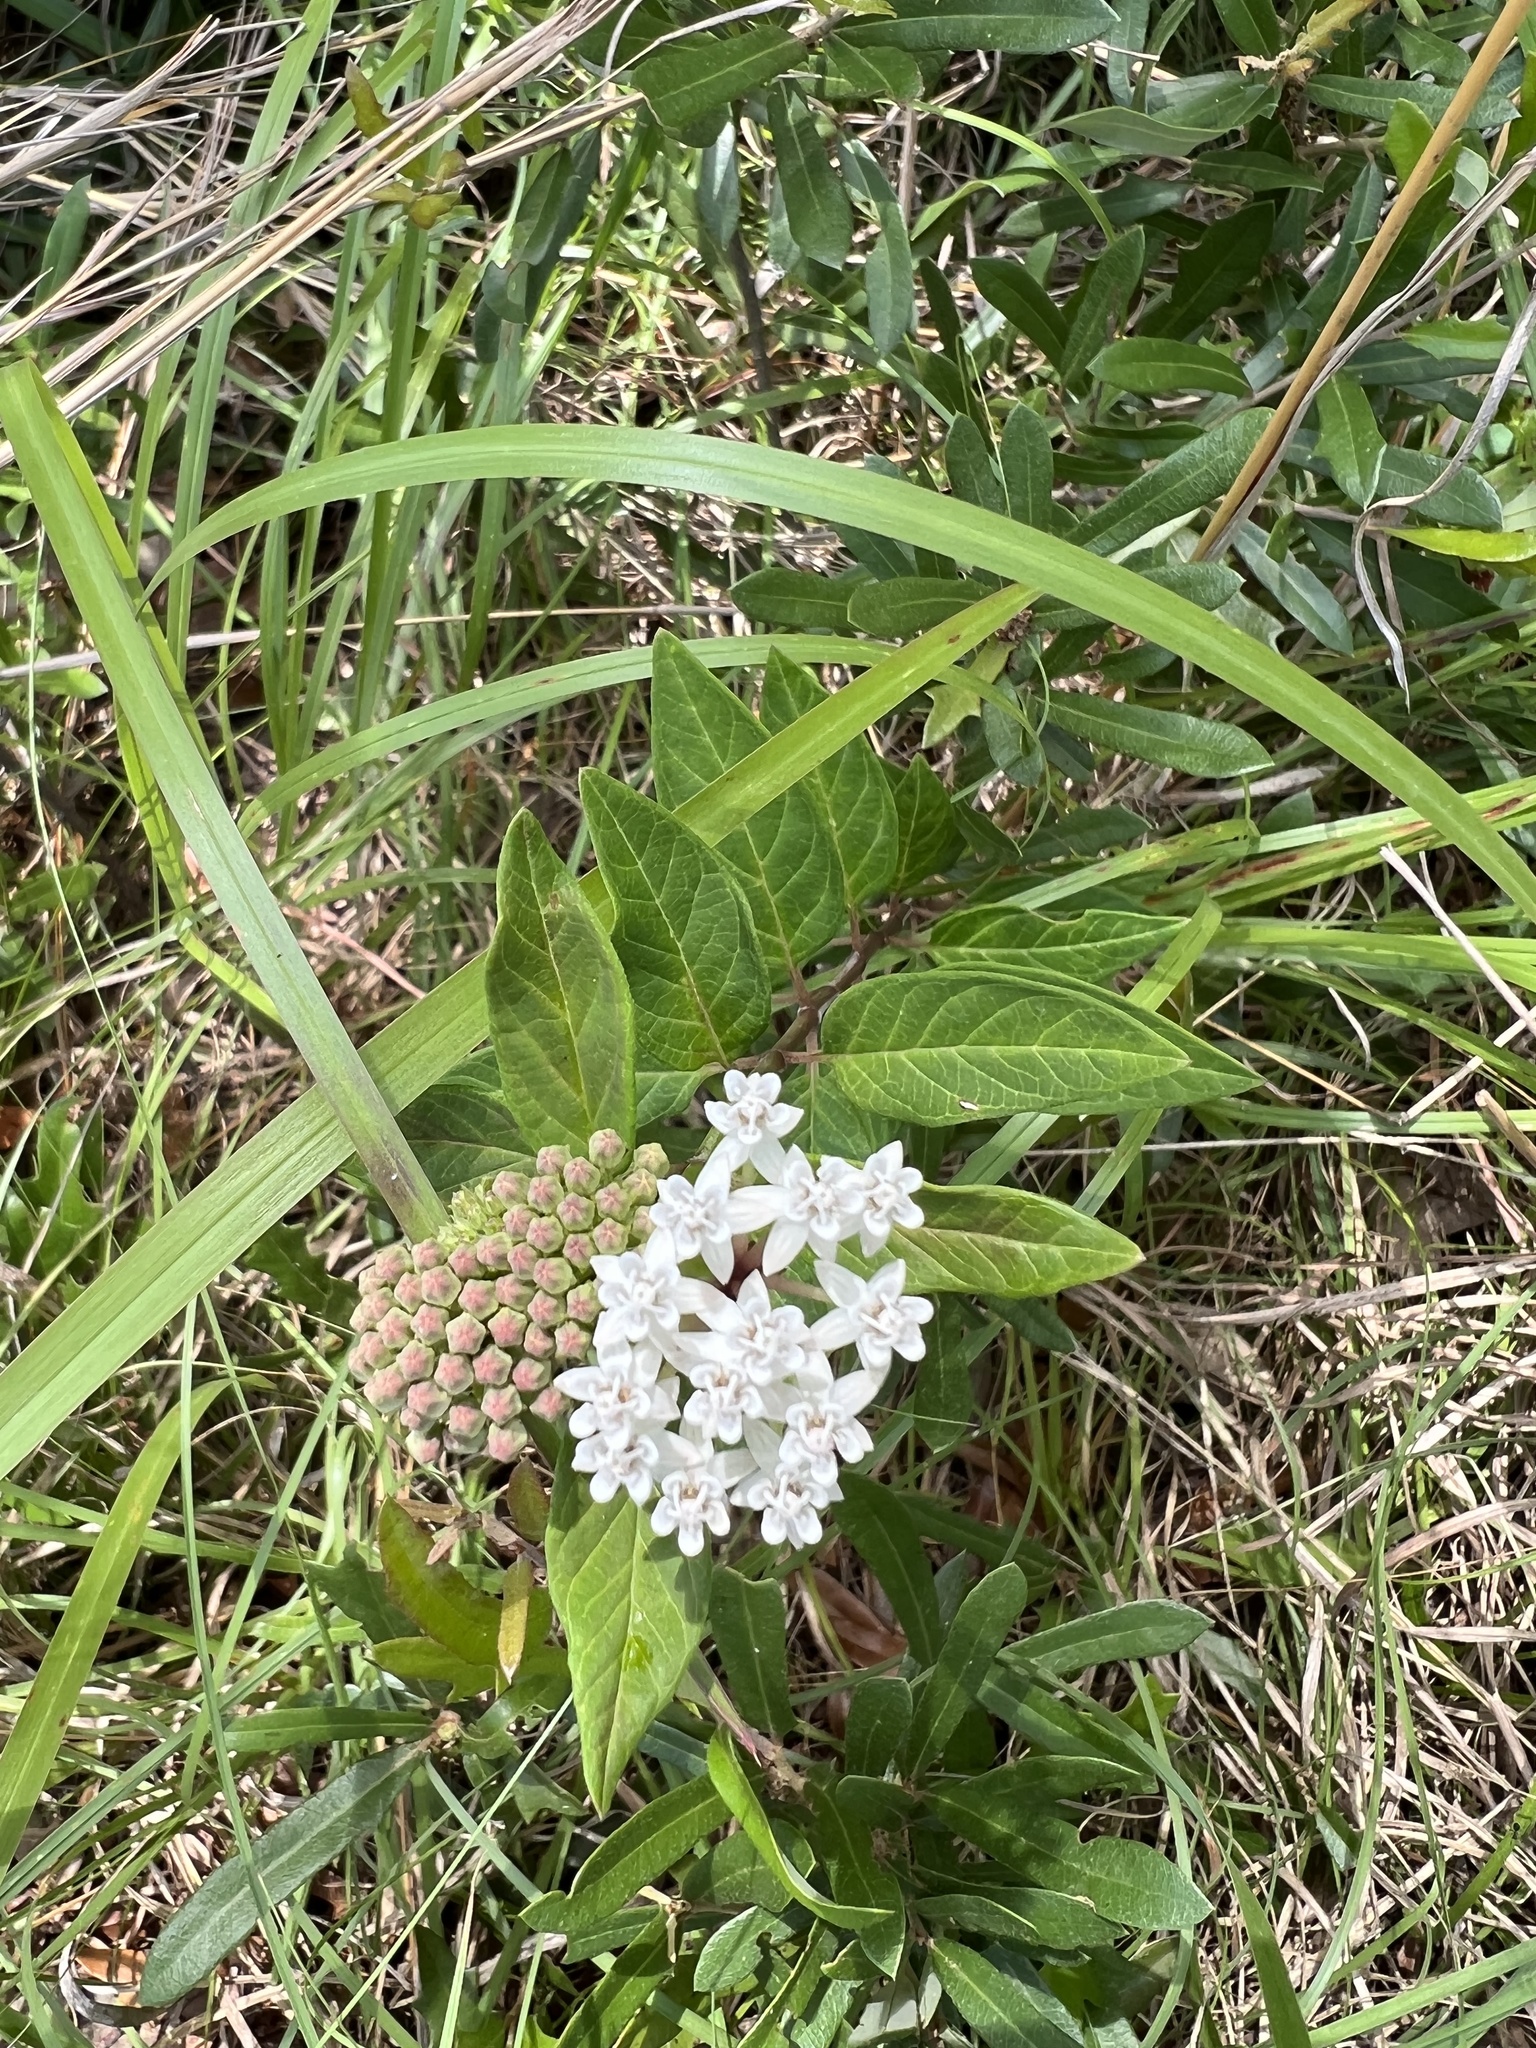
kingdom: Plantae
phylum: Tracheophyta
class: Magnoliopsida
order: Gentianales
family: Apocynaceae
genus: Asclepias
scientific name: Asclepias texana
